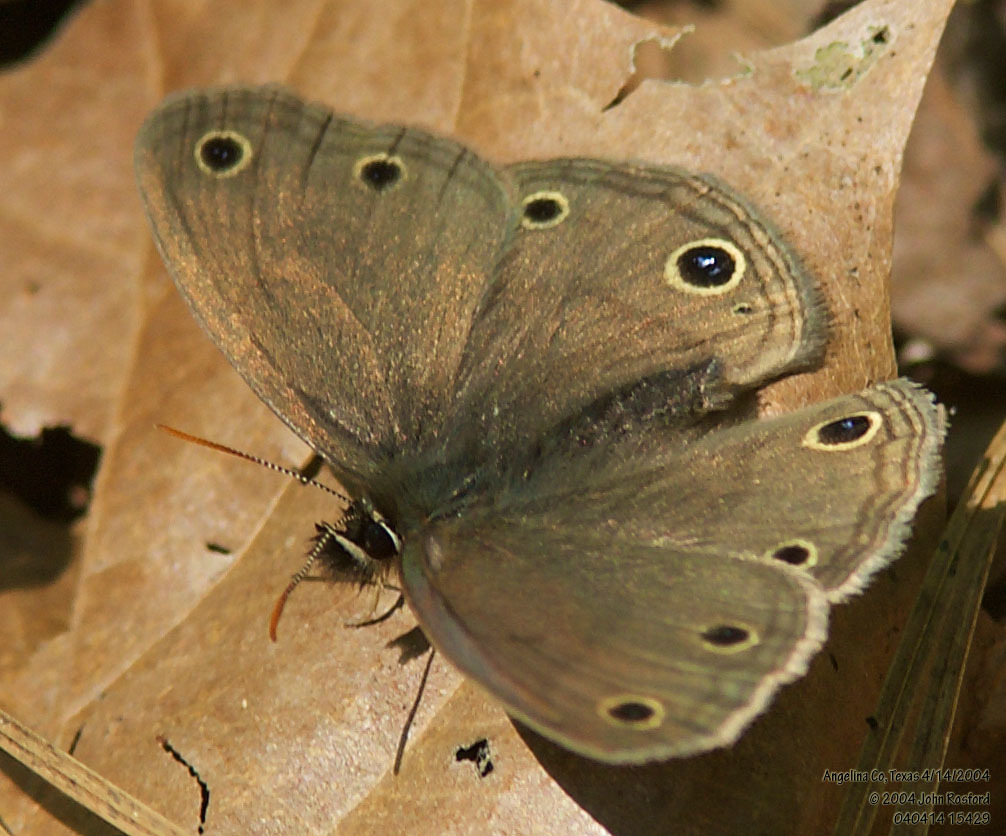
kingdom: Animalia
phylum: Arthropoda
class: Insecta
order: Lepidoptera
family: Nymphalidae
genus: Euptychia
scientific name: Euptychia cymela
